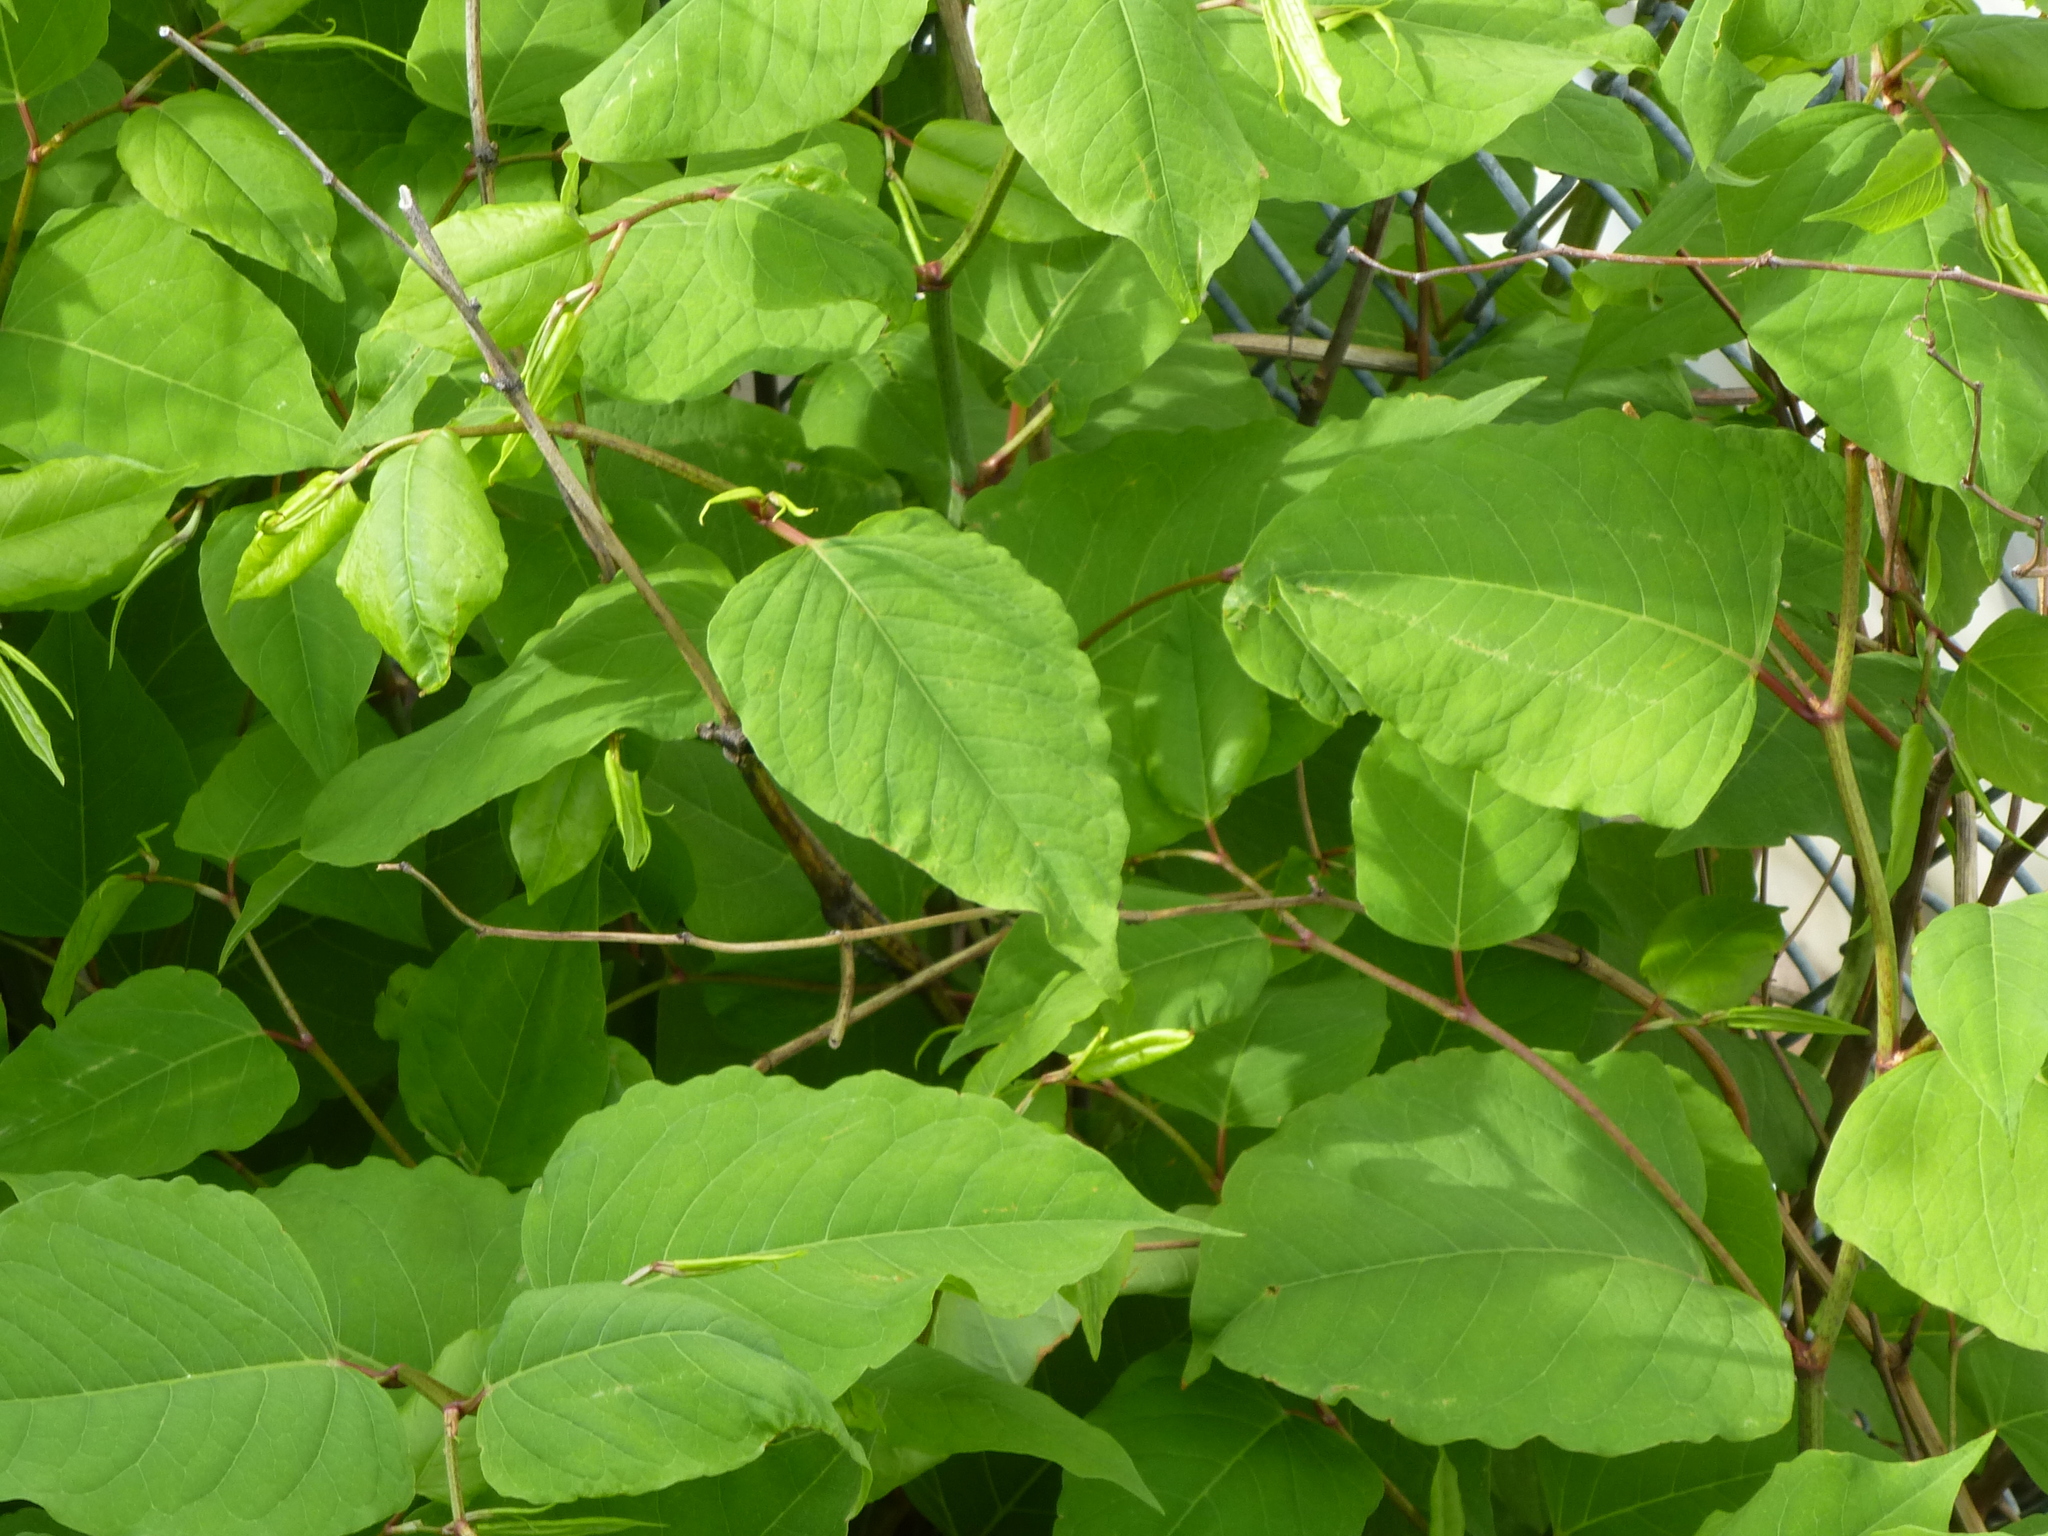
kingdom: Plantae
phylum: Tracheophyta
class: Magnoliopsida
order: Caryophyllales
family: Polygonaceae
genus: Reynoutria
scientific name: Reynoutria japonica
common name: Japanese knotweed
